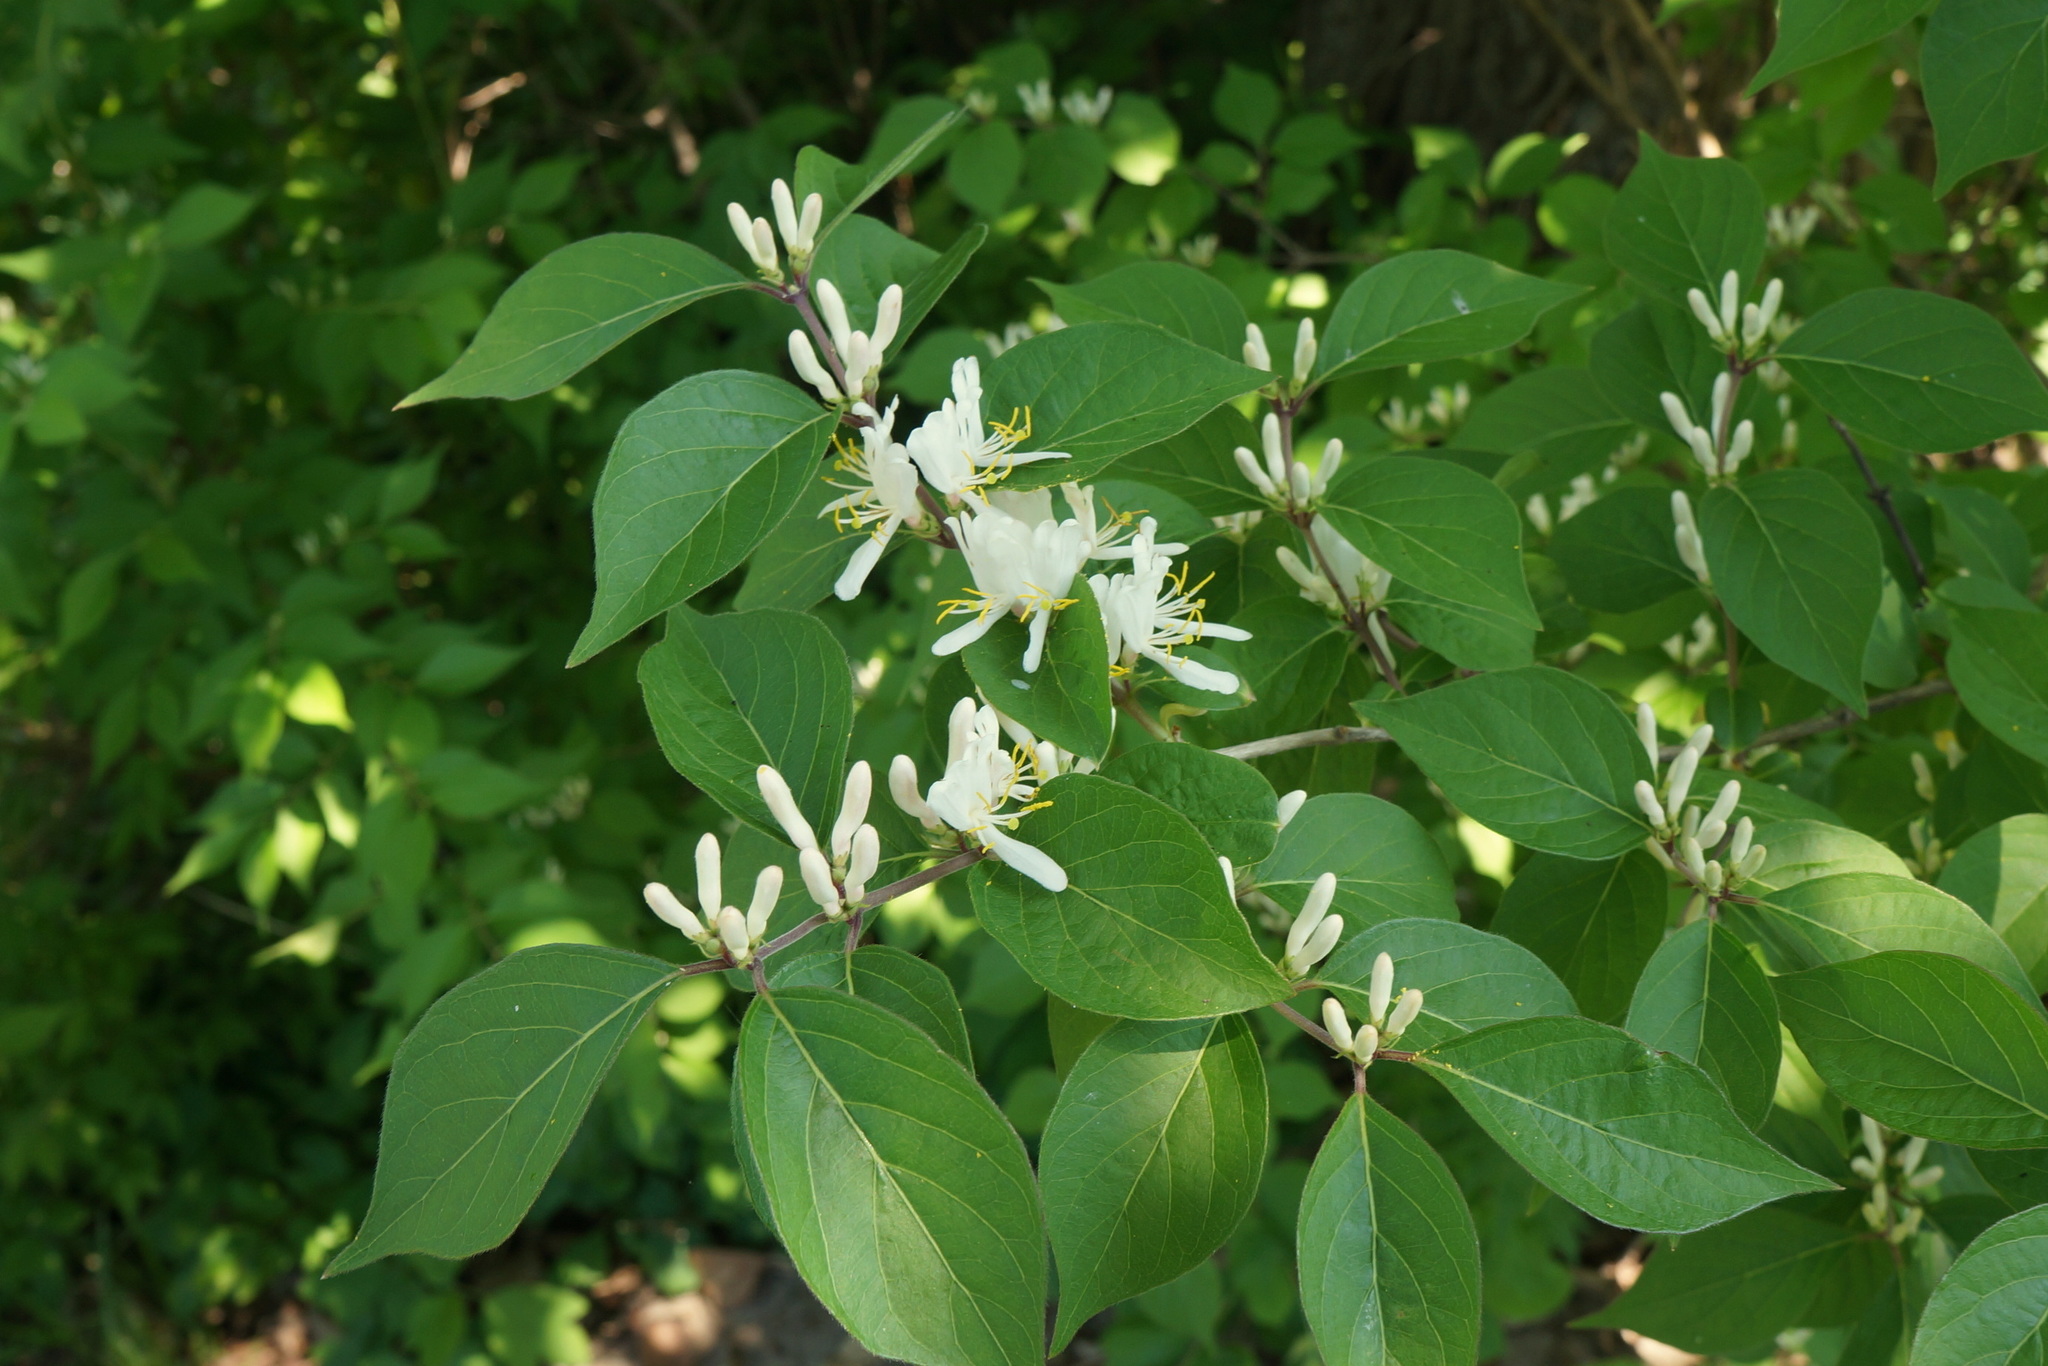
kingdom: Plantae
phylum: Tracheophyta
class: Magnoliopsida
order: Dipsacales
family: Caprifoliaceae
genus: Lonicera
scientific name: Lonicera maackii
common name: Amur honeysuckle
